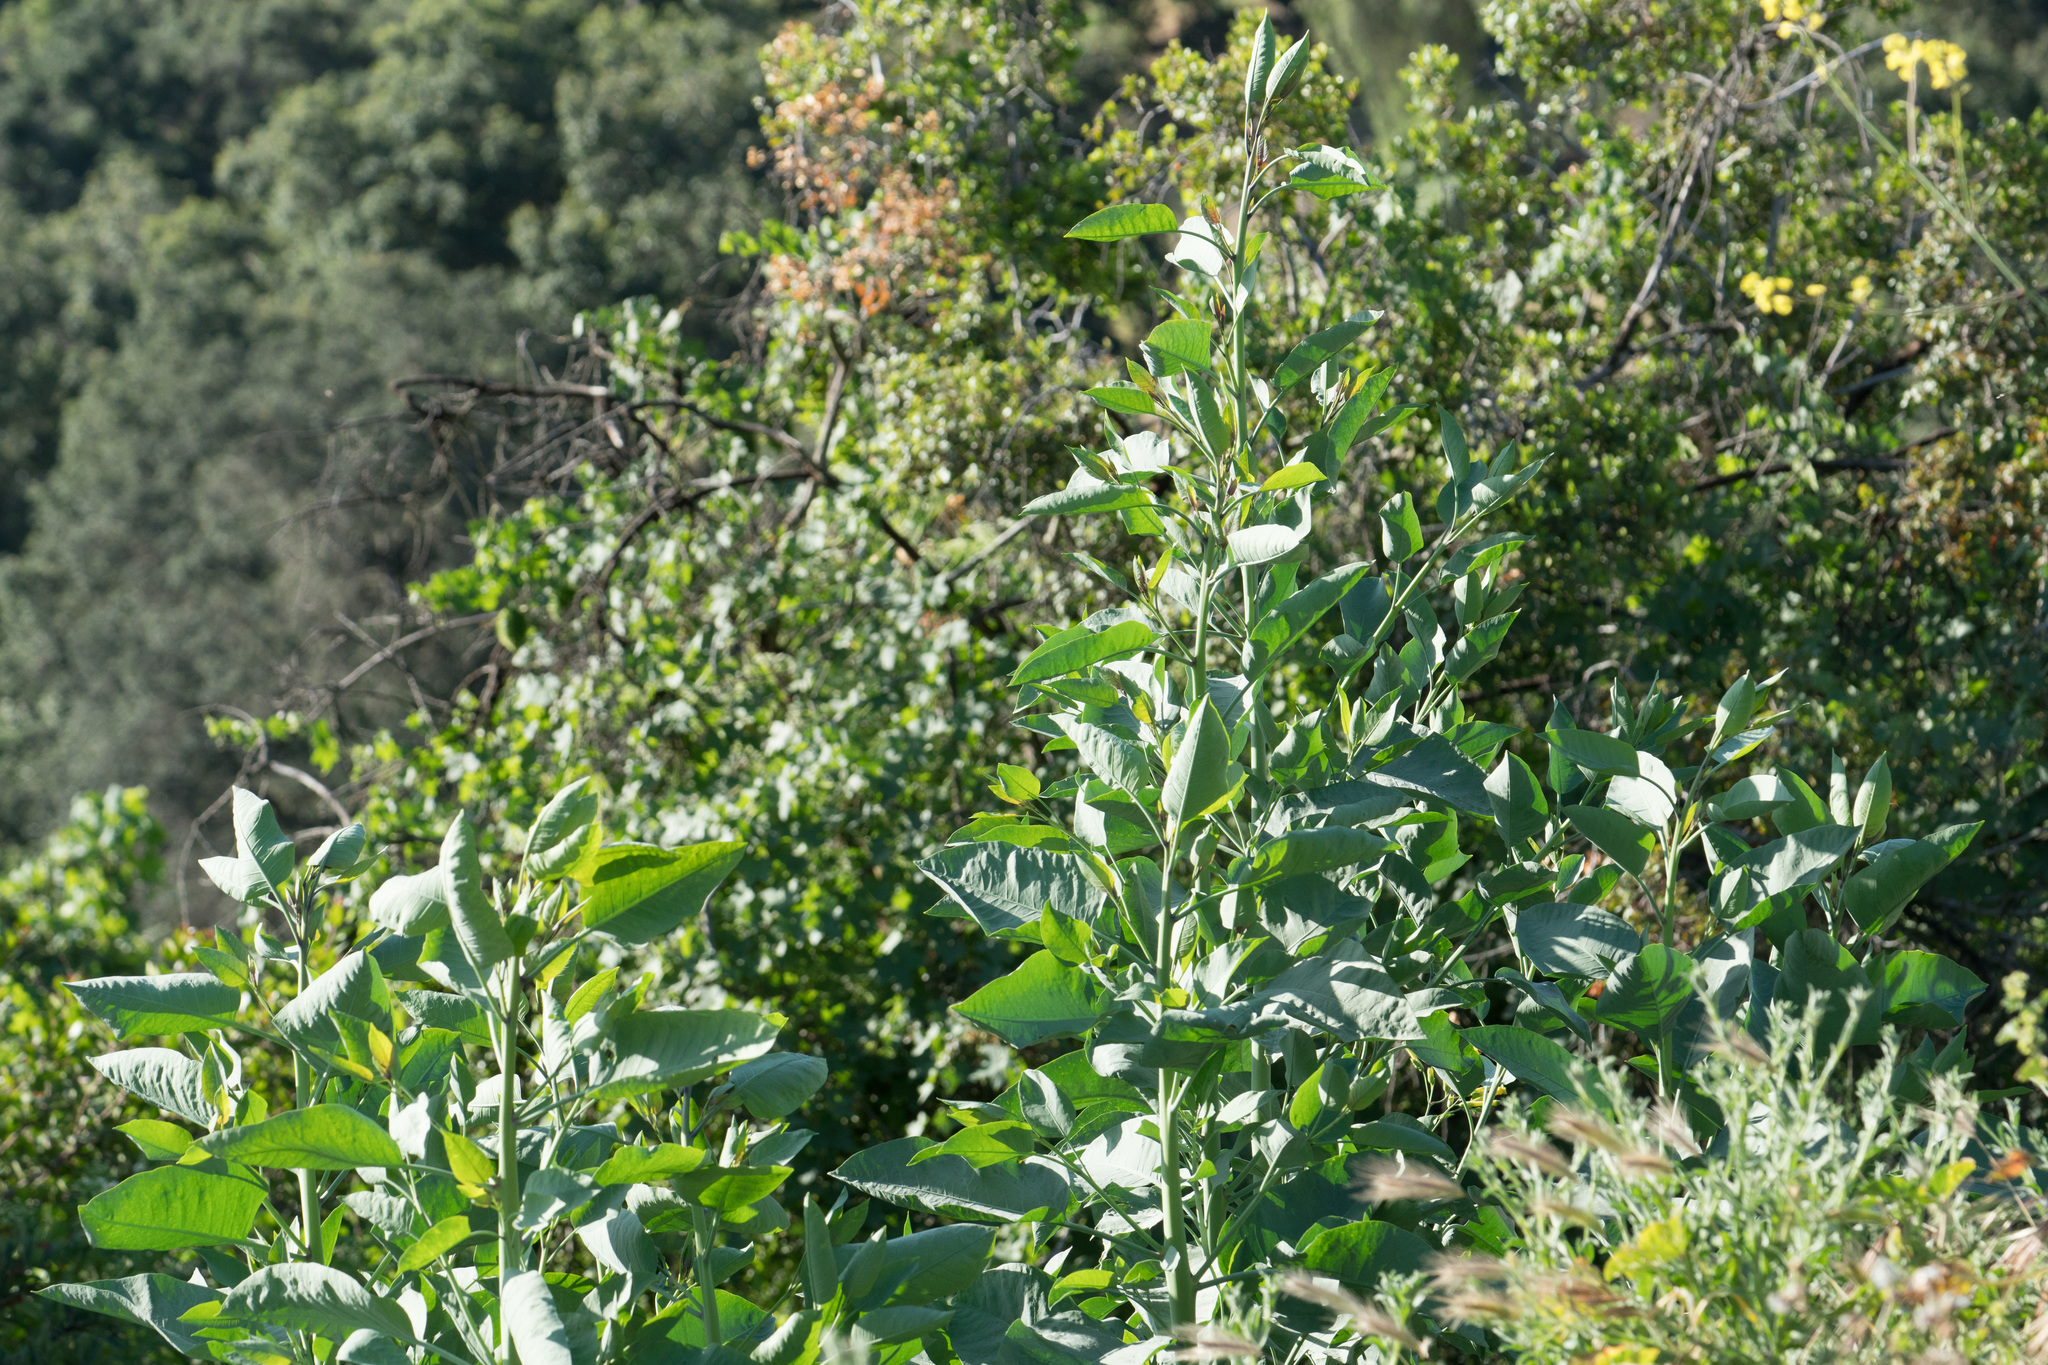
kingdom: Plantae
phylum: Tracheophyta
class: Magnoliopsida
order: Solanales
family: Solanaceae
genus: Nicotiana
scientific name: Nicotiana glauca
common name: Tree tobacco
